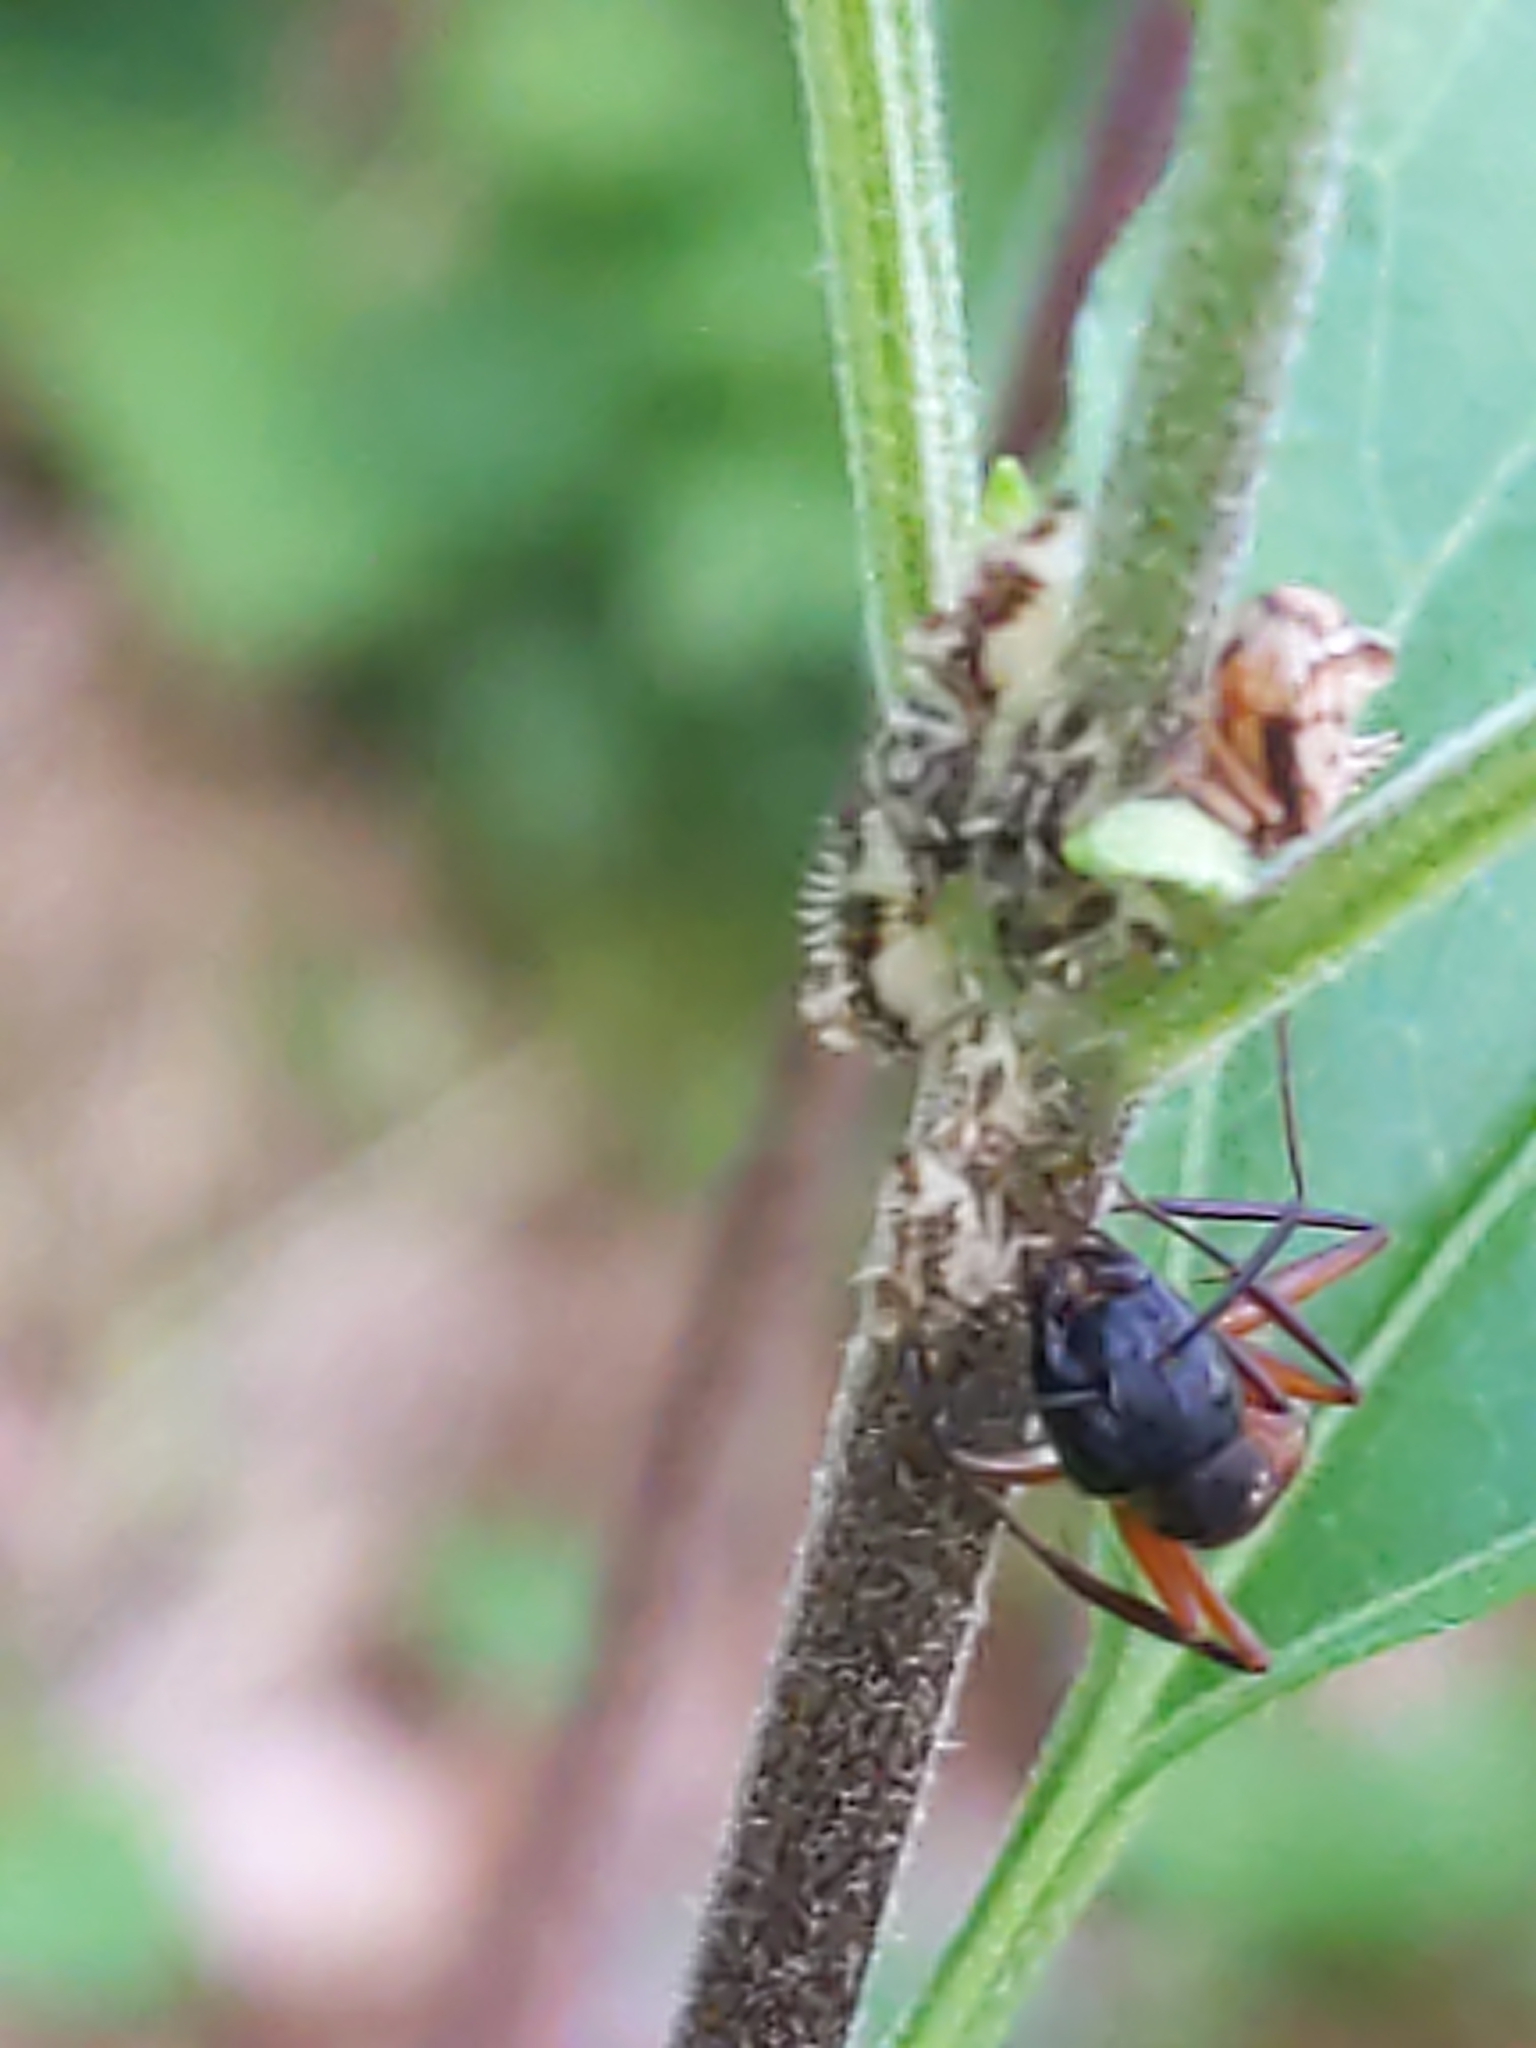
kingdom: Animalia
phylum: Arthropoda
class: Insecta
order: Hymenoptera
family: Formicidae
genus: Camponotus
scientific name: Camponotus chromaiodes
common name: Red carpenter ant
